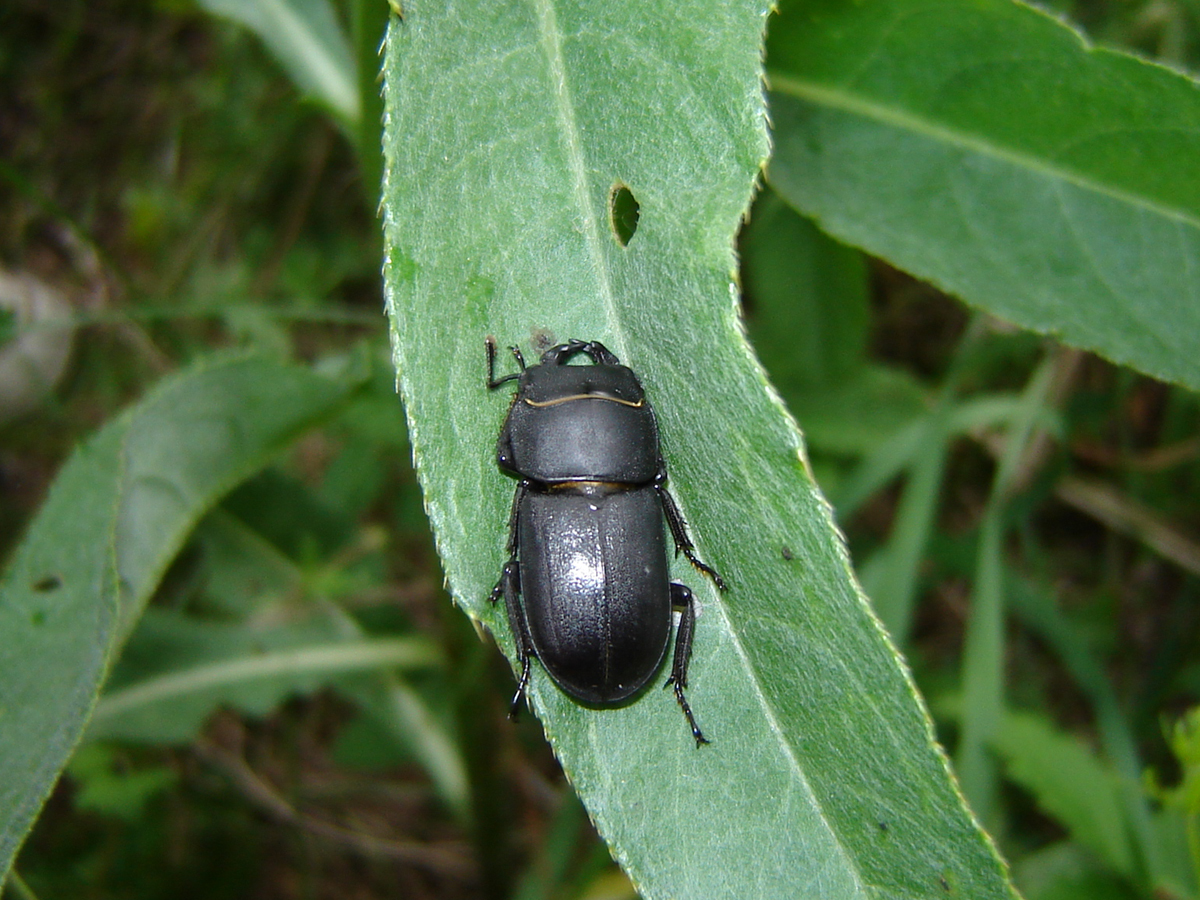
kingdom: Animalia
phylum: Arthropoda
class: Insecta
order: Coleoptera
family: Lucanidae
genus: Dorcus
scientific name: Dorcus parallelipipedus
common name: Lesser stag beetle
